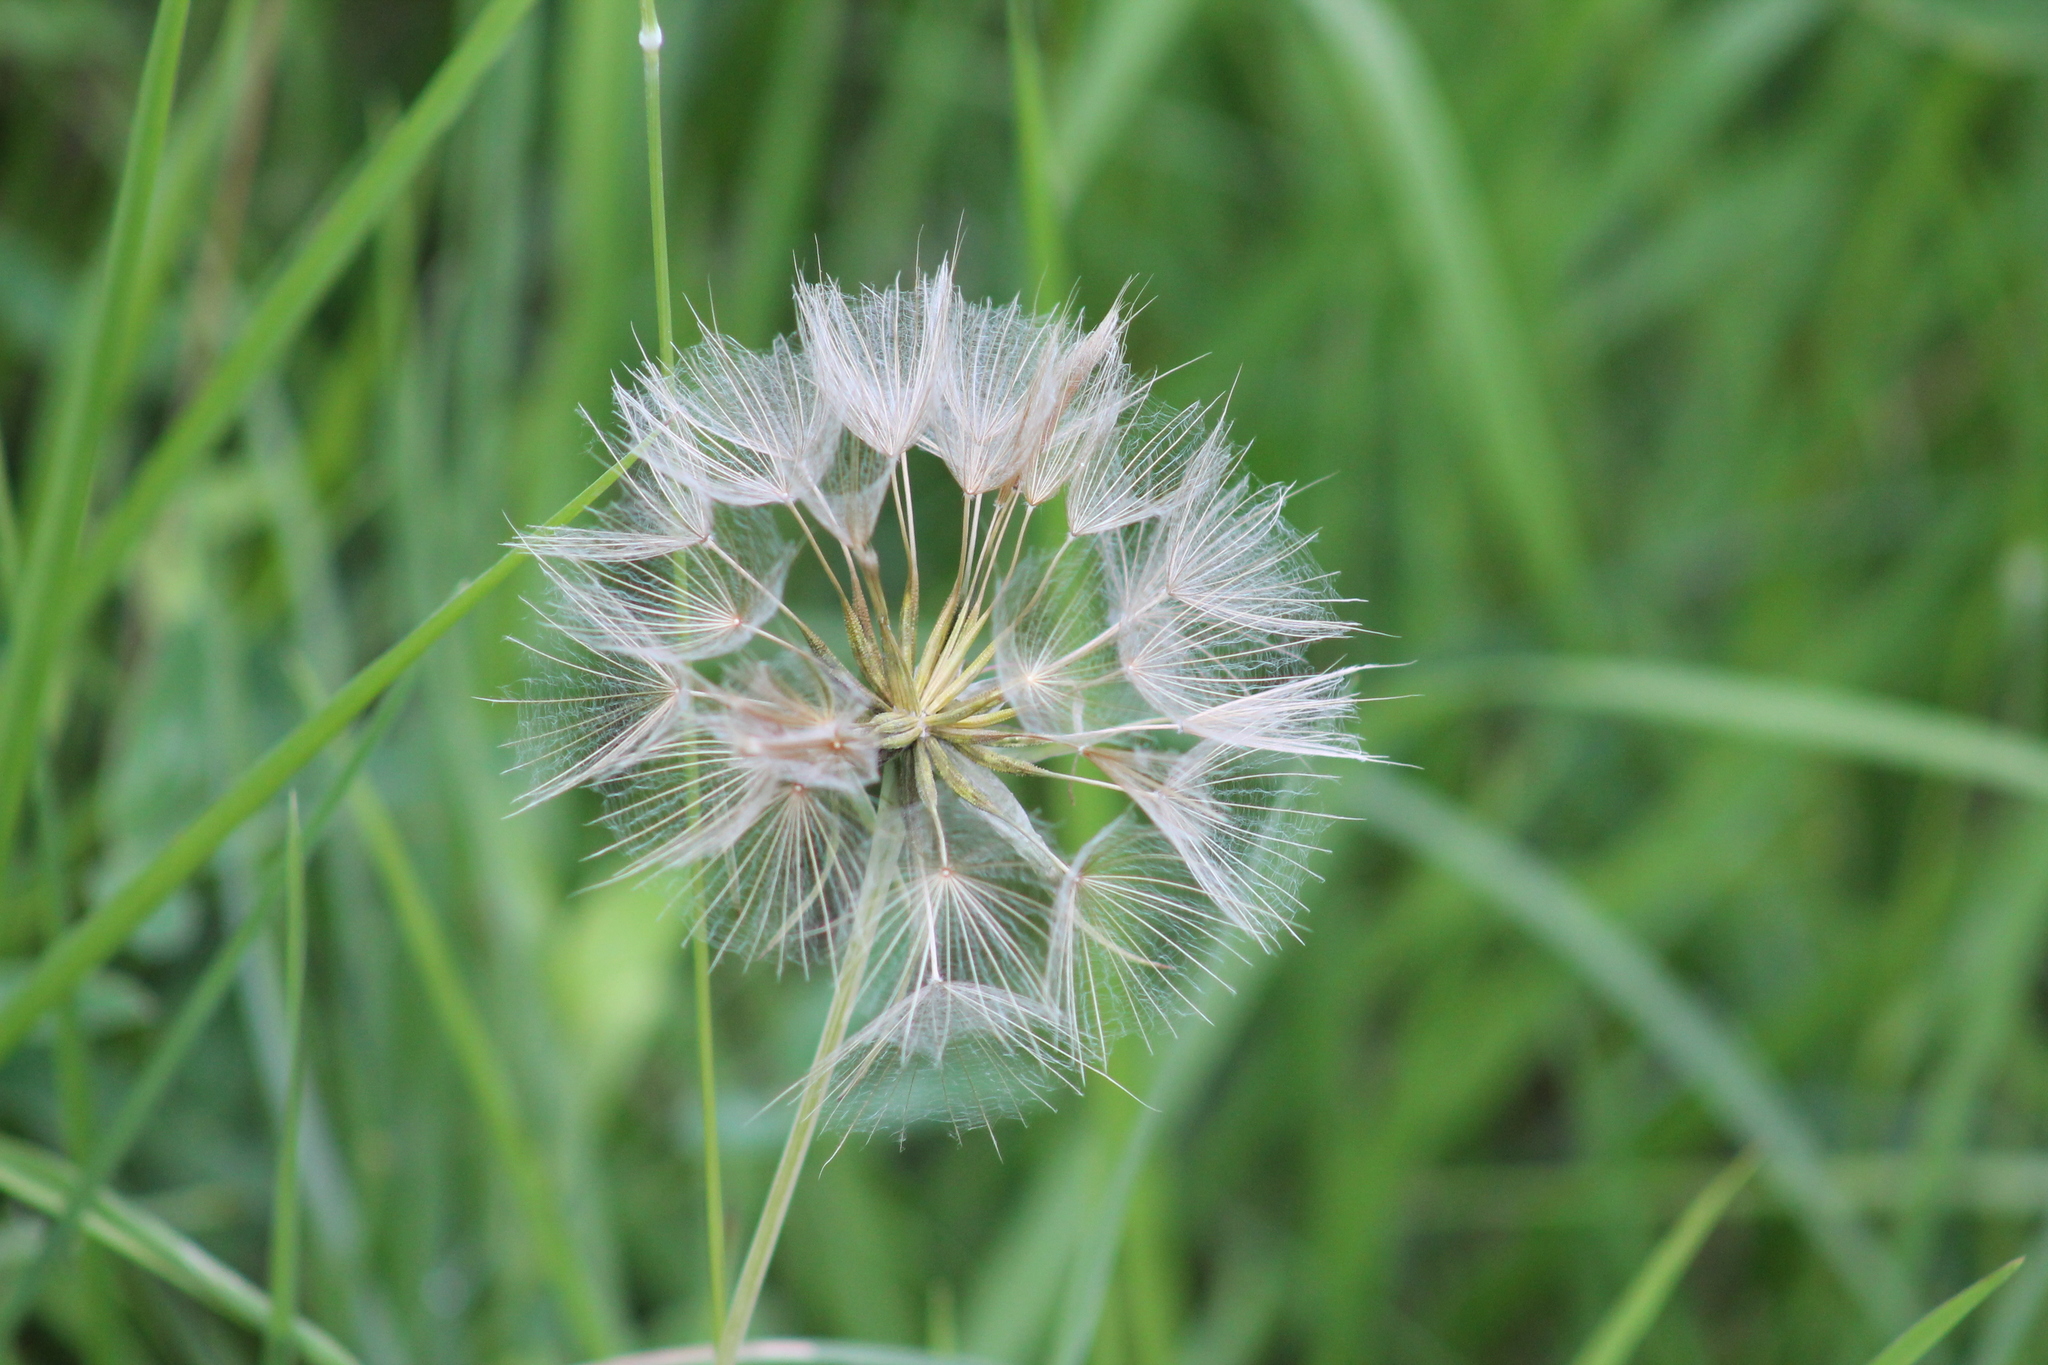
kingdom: Plantae
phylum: Tracheophyta
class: Magnoliopsida
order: Asterales
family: Asteraceae
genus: Tragopogon
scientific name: Tragopogon pratensis
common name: Goat's-beard
